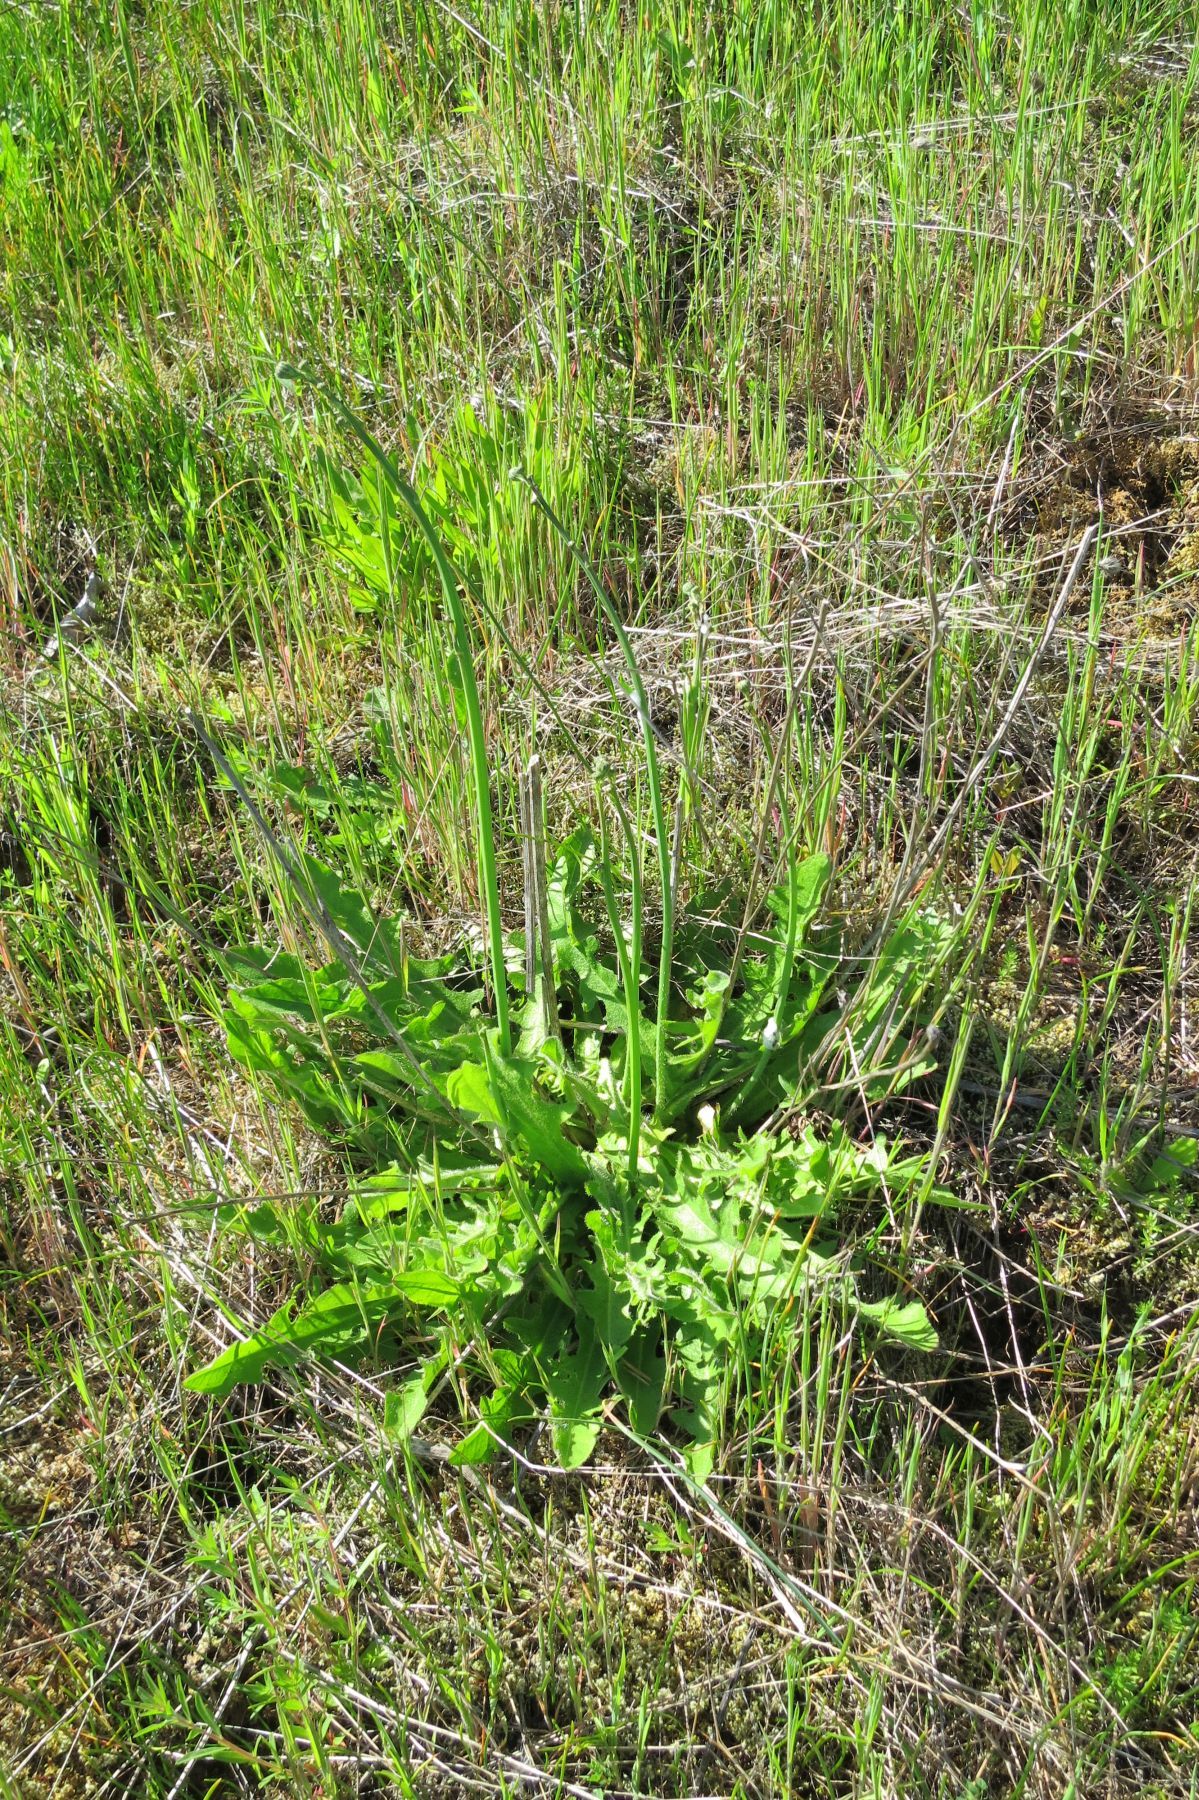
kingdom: Plantae
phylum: Tracheophyta
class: Magnoliopsida
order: Asterales
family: Asteraceae
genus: Hypochaeris
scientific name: Hypochaeris radicata
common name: Flatweed
